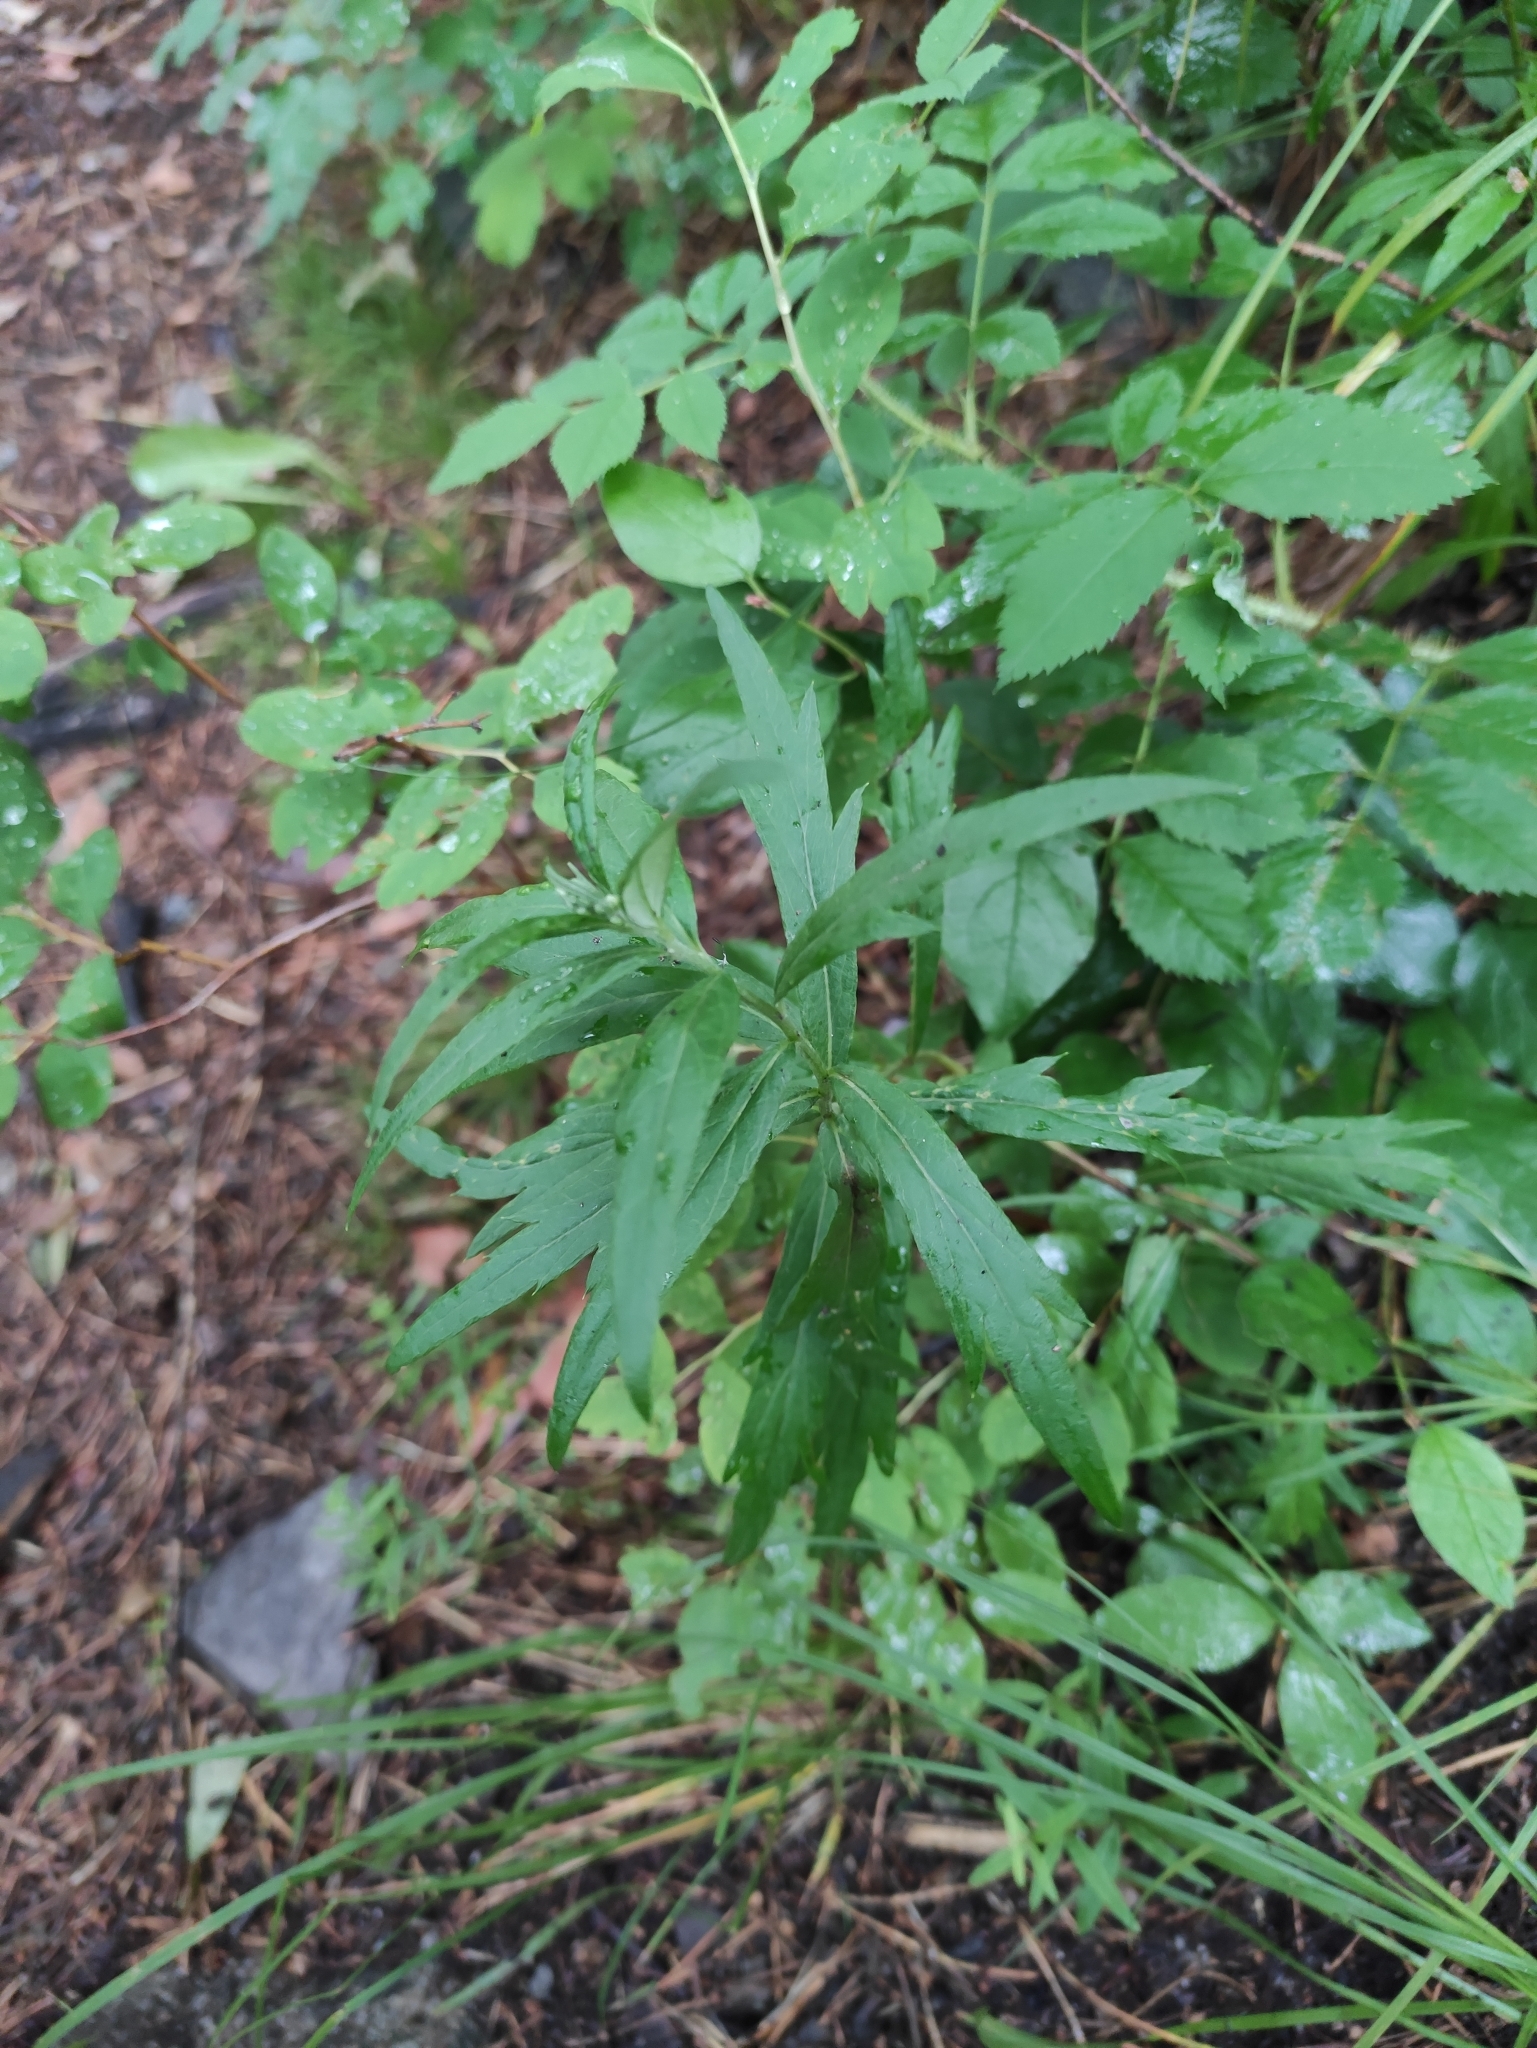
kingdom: Plantae
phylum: Tracheophyta
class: Magnoliopsida
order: Asterales
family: Asteraceae
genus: Artemisia
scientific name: Artemisia integrifolia
